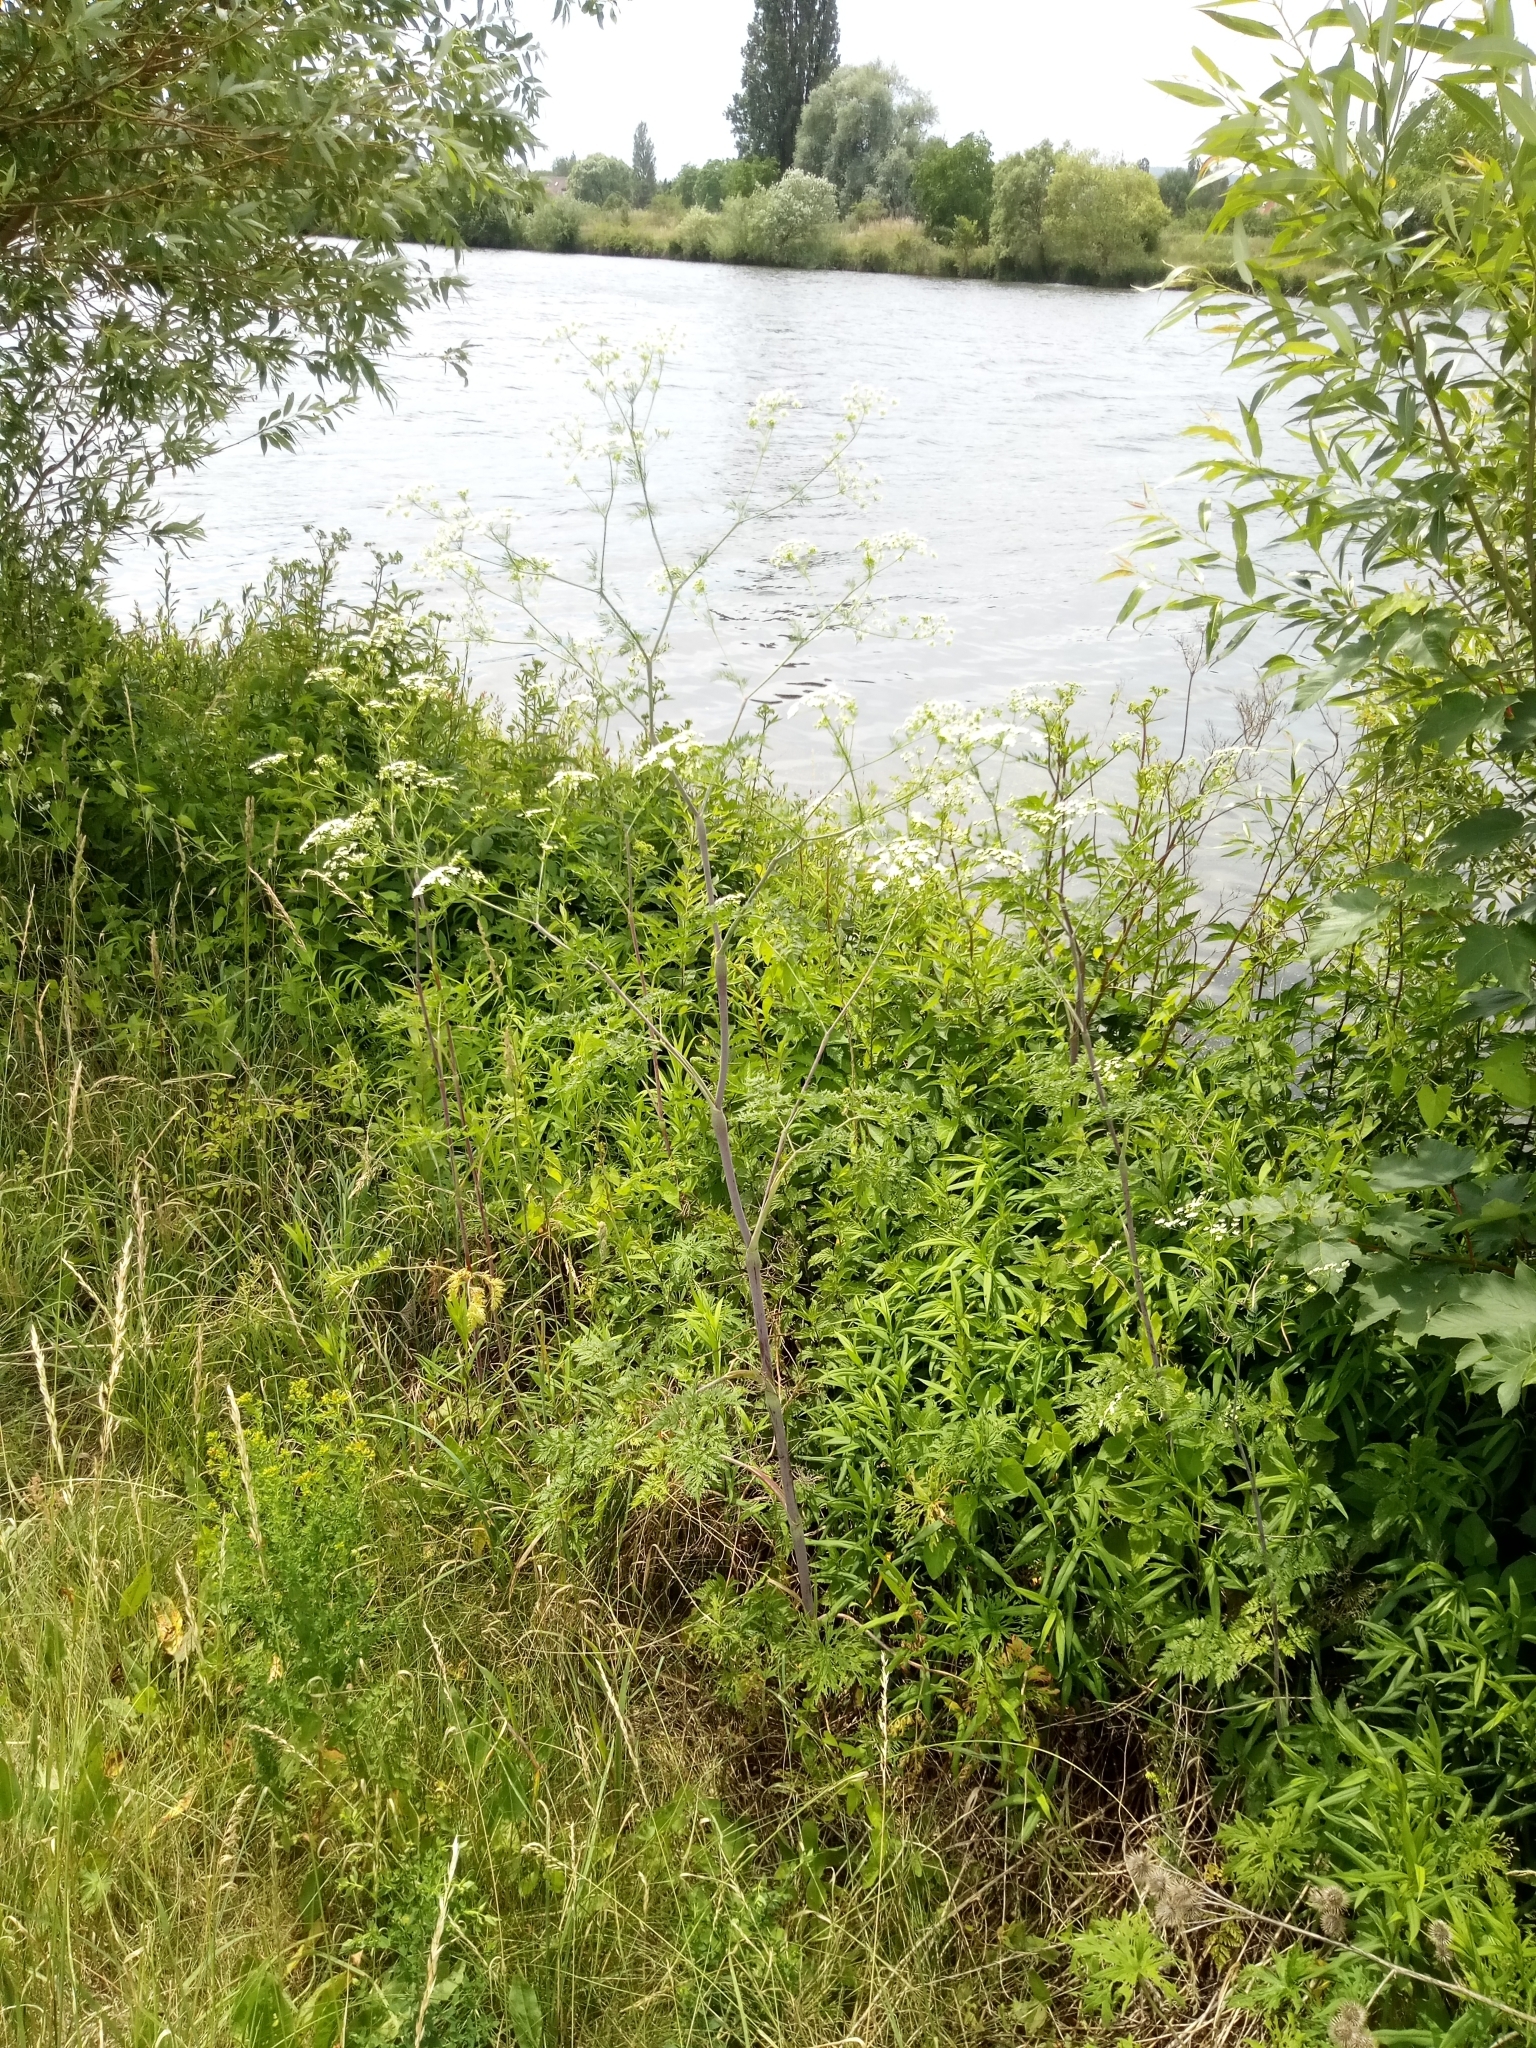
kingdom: Plantae
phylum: Tracheophyta
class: Magnoliopsida
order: Apiales
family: Apiaceae
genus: Chaerophyllum
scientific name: Chaerophyllum bulbosum
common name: Bulbous chervil
